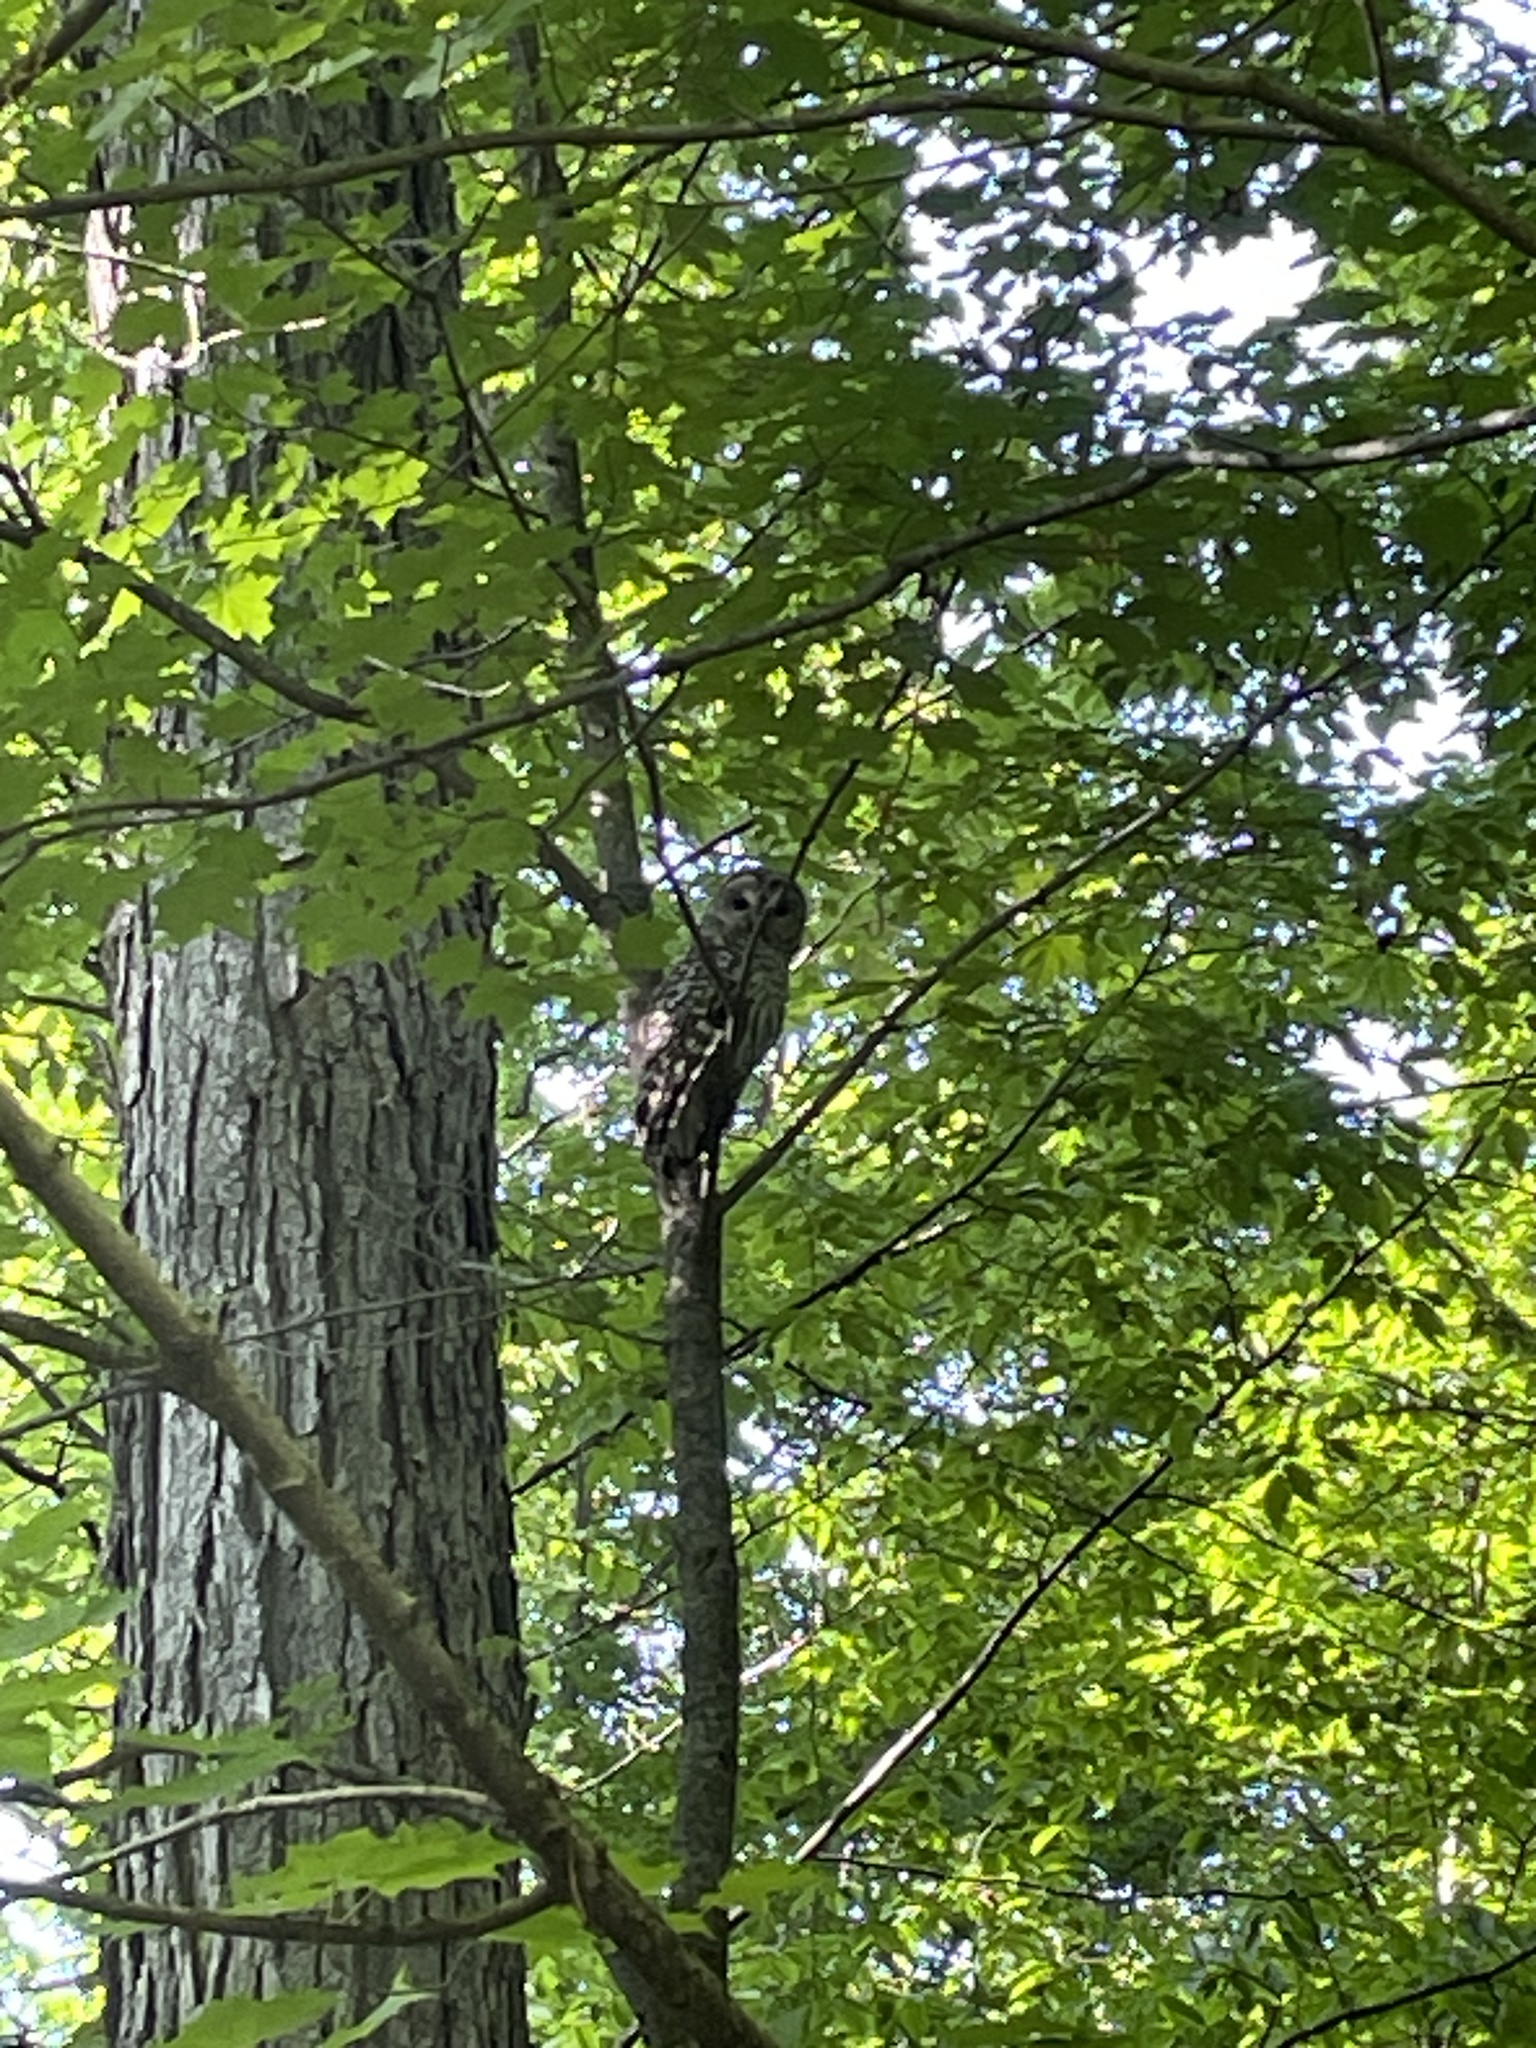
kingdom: Animalia
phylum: Chordata
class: Aves
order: Strigiformes
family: Strigidae
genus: Strix
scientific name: Strix varia
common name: Barred owl
